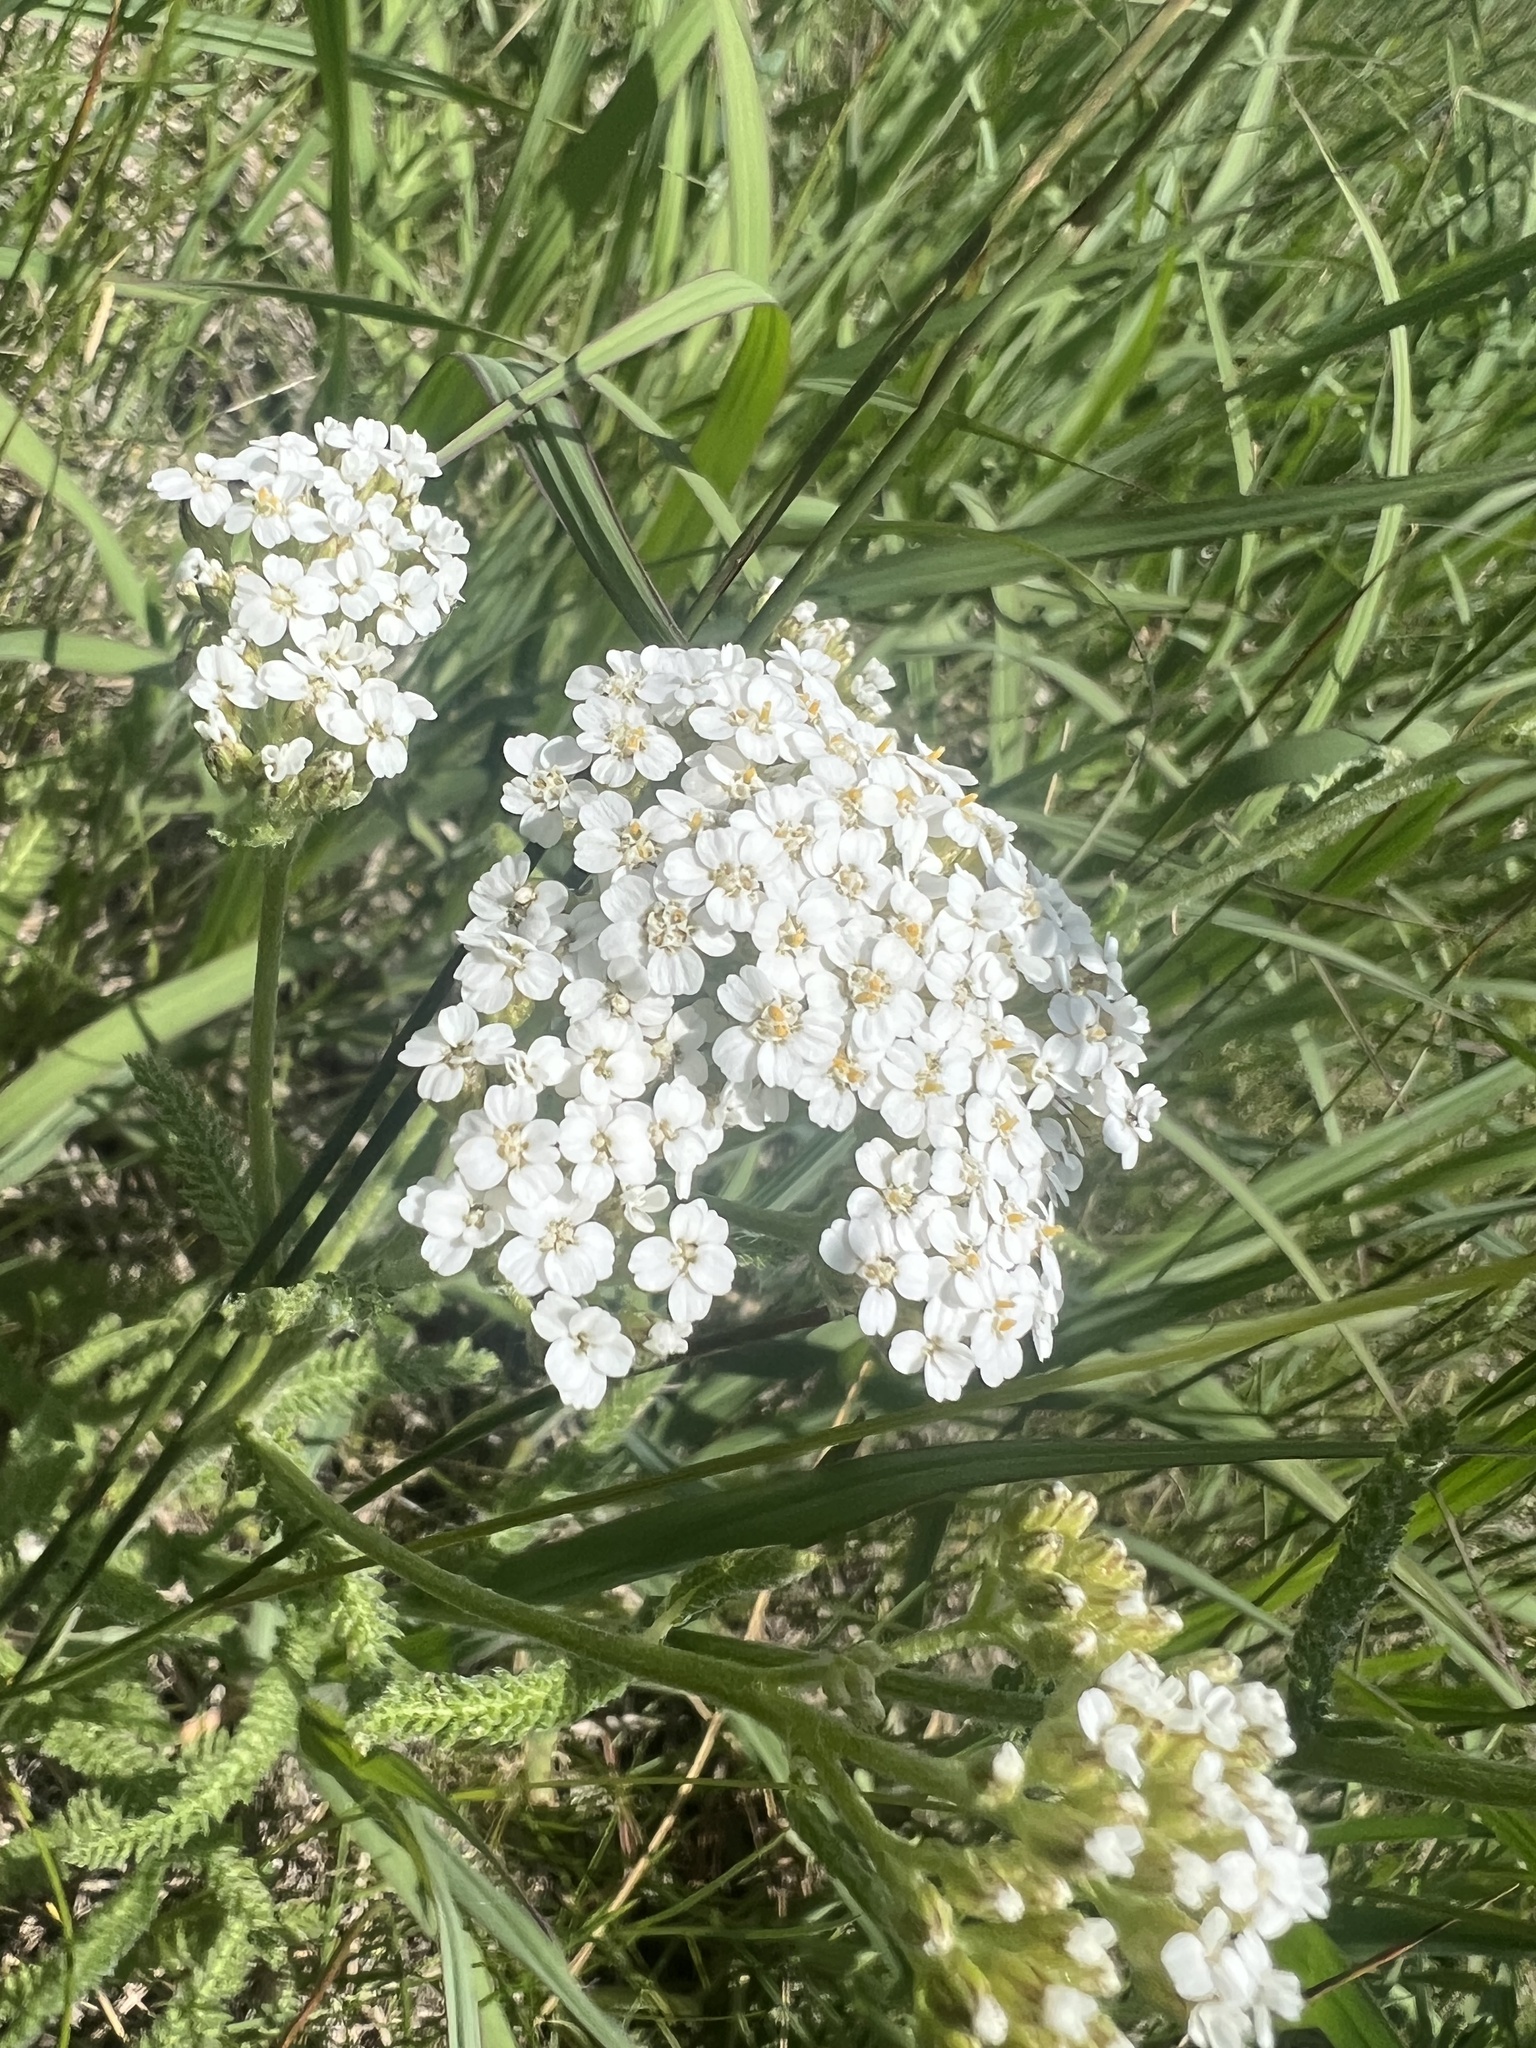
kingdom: Plantae
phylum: Tracheophyta
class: Magnoliopsida
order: Asterales
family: Asteraceae
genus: Achillea
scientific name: Achillea millefolium
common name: Yarrow
